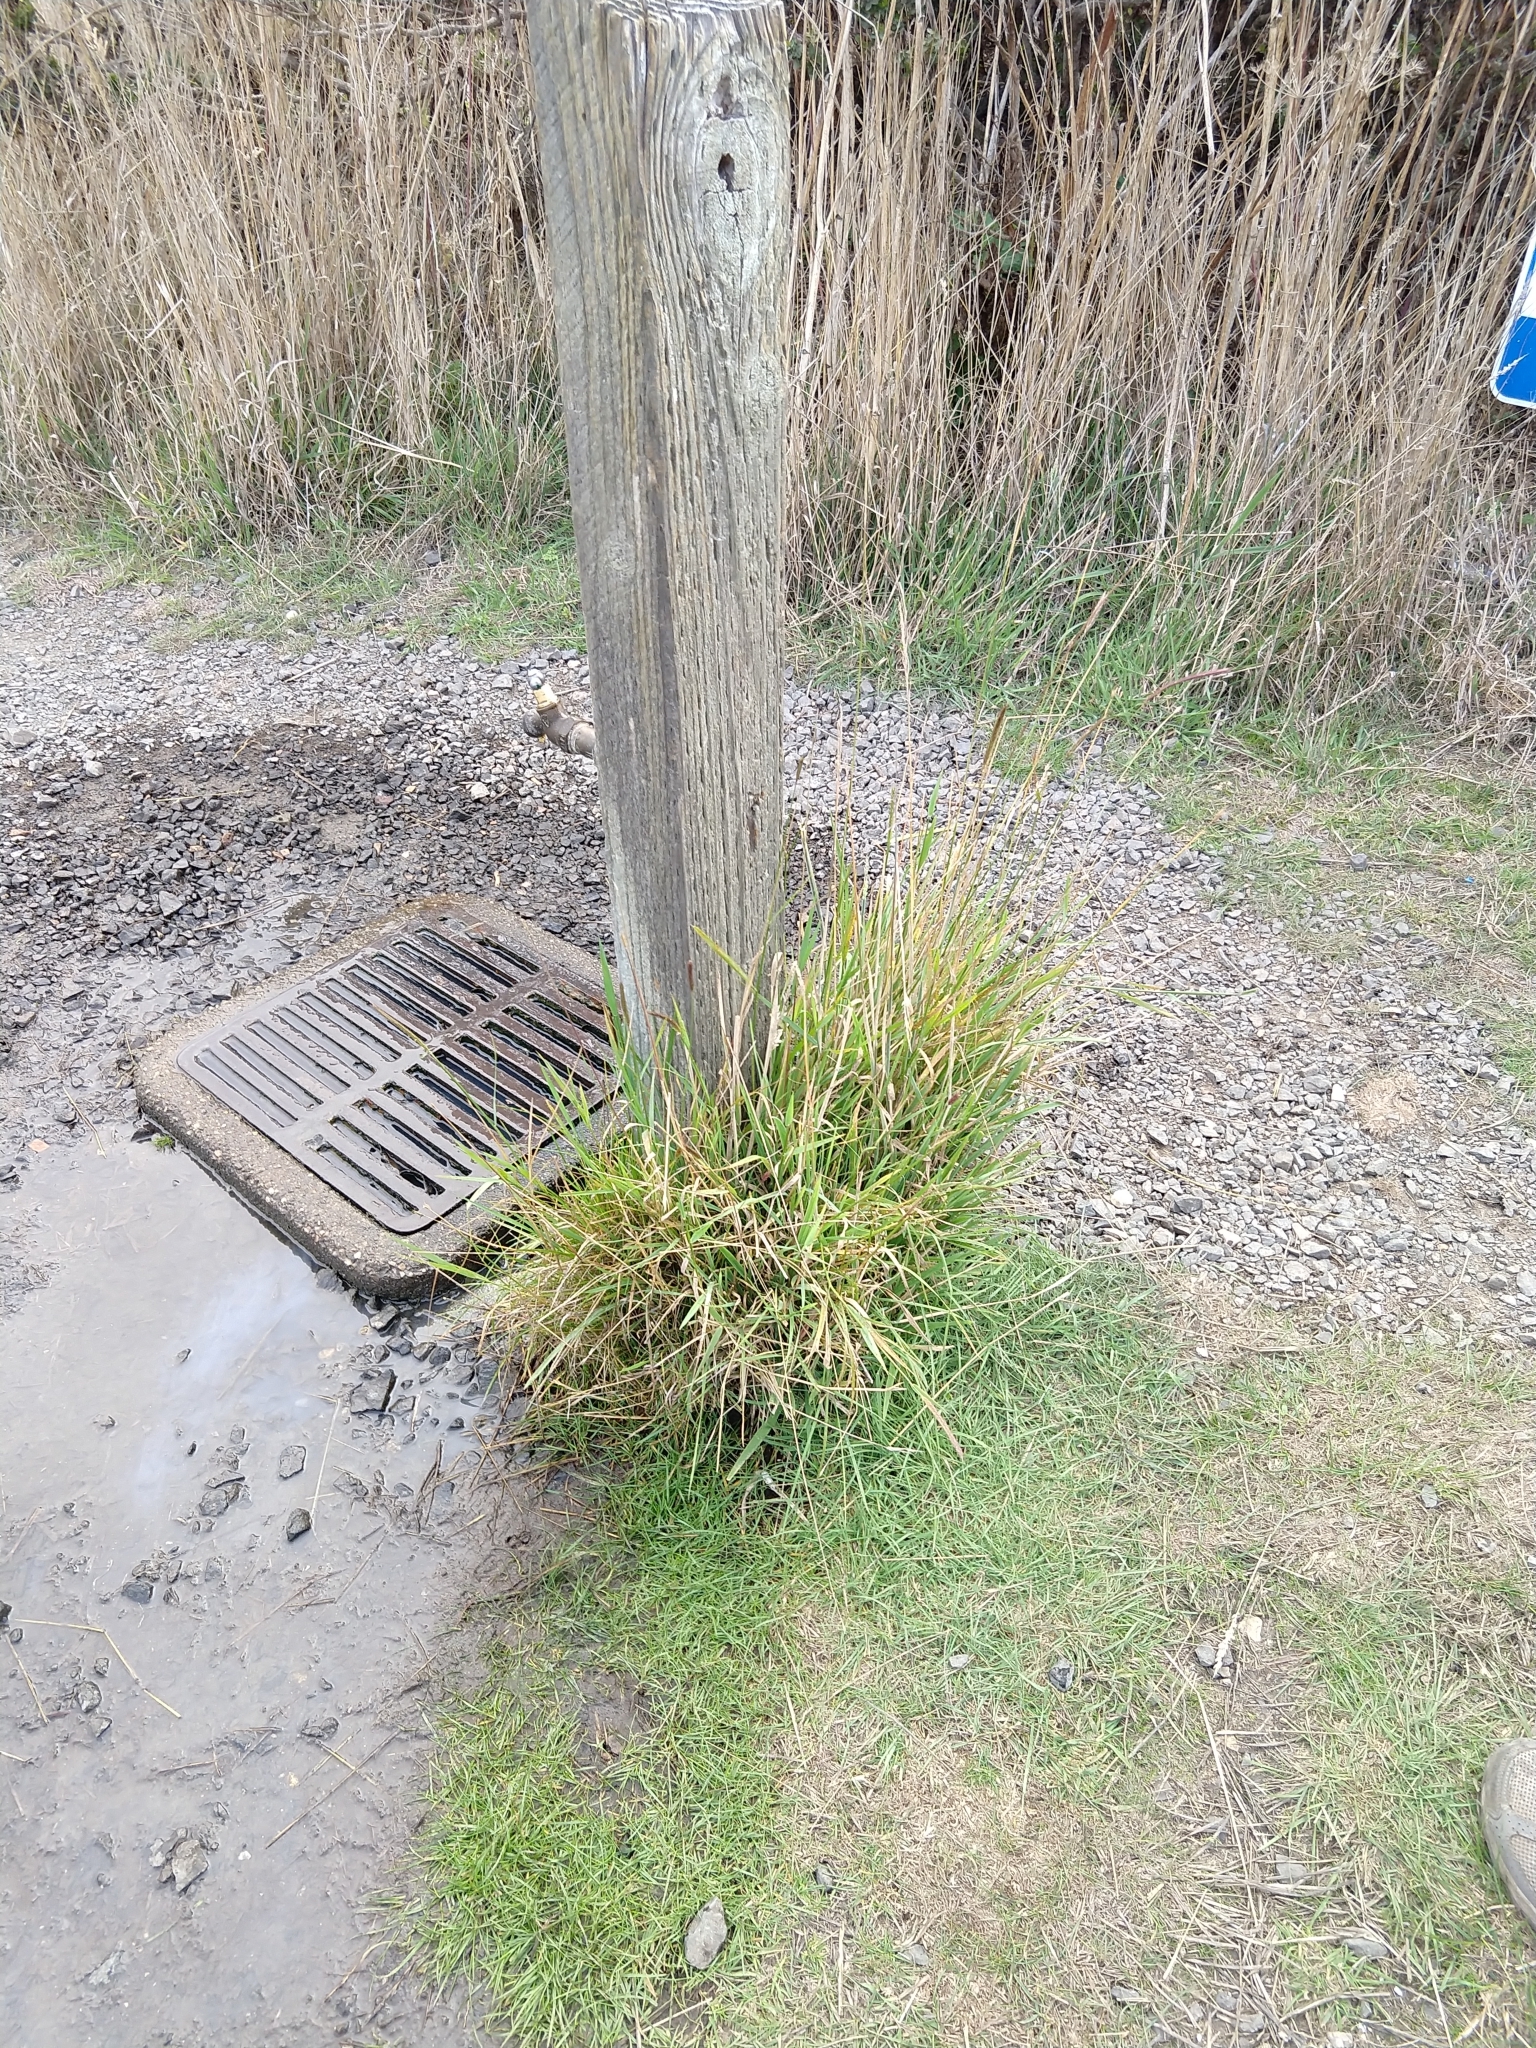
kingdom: Plantae
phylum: Tracheophyta
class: Liliopsida
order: Poales
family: Poaceae
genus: Hordeum
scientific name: Hordeum brachyantherum
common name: Meadow barley
